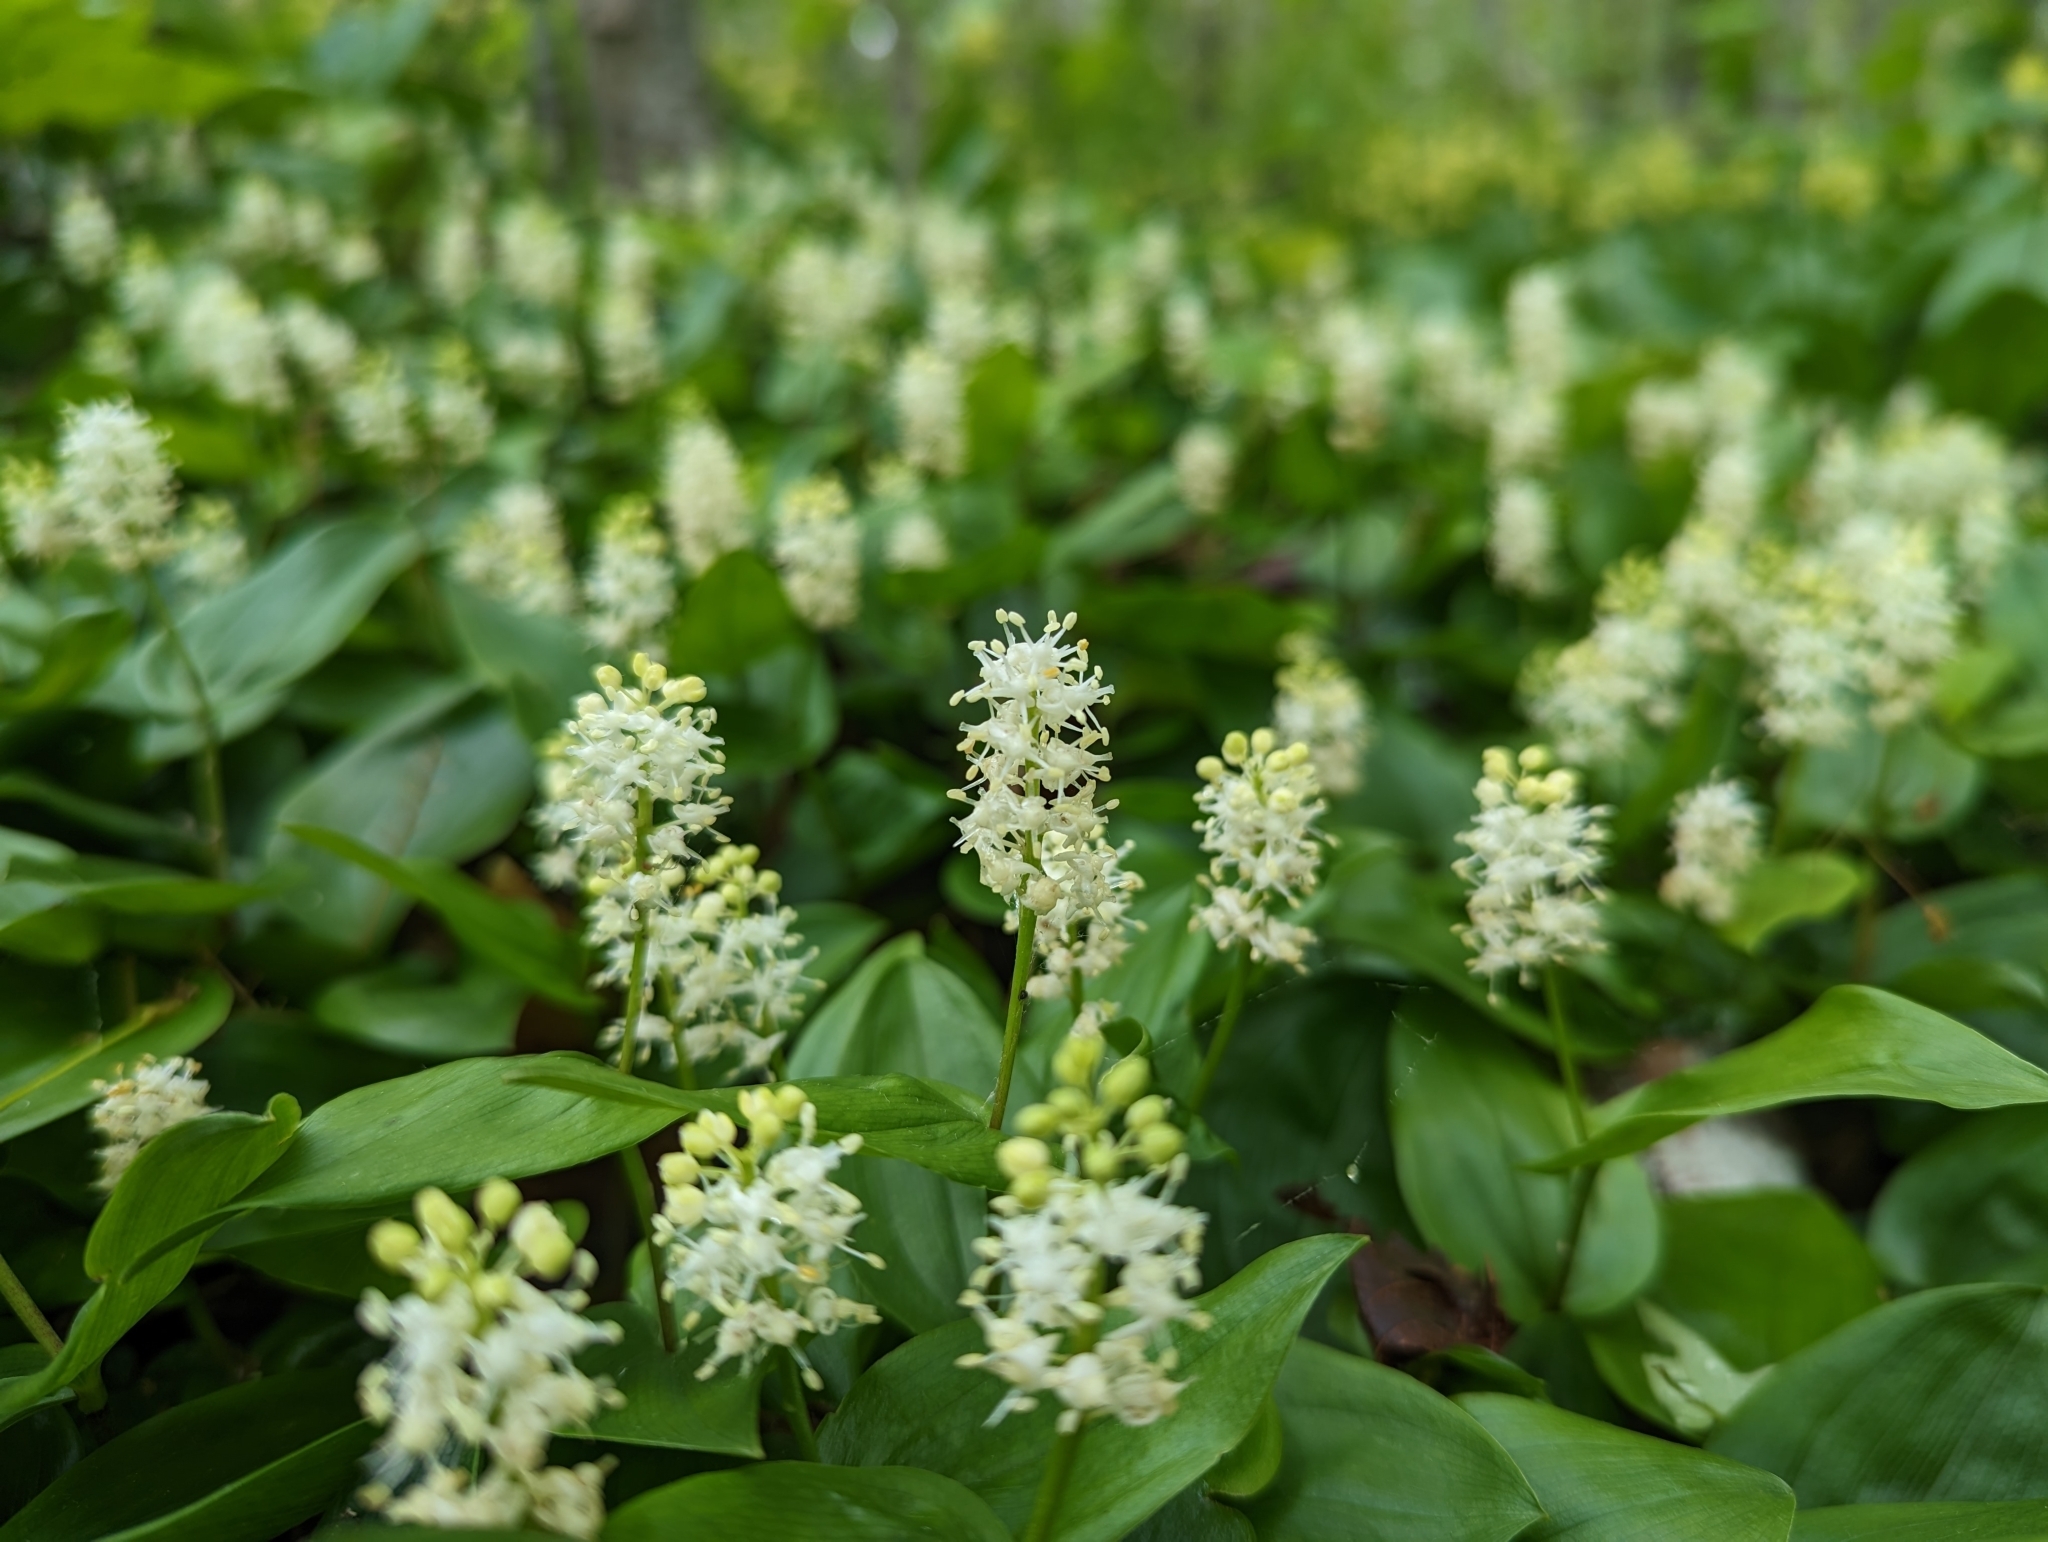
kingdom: Plantae
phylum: Tracheophyta
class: Liliopsida
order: Asparagales
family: Asparagaceae
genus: Maianthemum
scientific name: Maianthemum canadense
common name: False lily-of-the-valley
